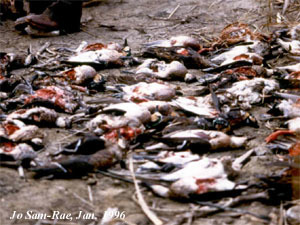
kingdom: Animalia
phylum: Chordata
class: Aves
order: Anseriformes
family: Anatidae
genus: Sibirionetta
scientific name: Sibirionetta formosa
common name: Baikal teal
